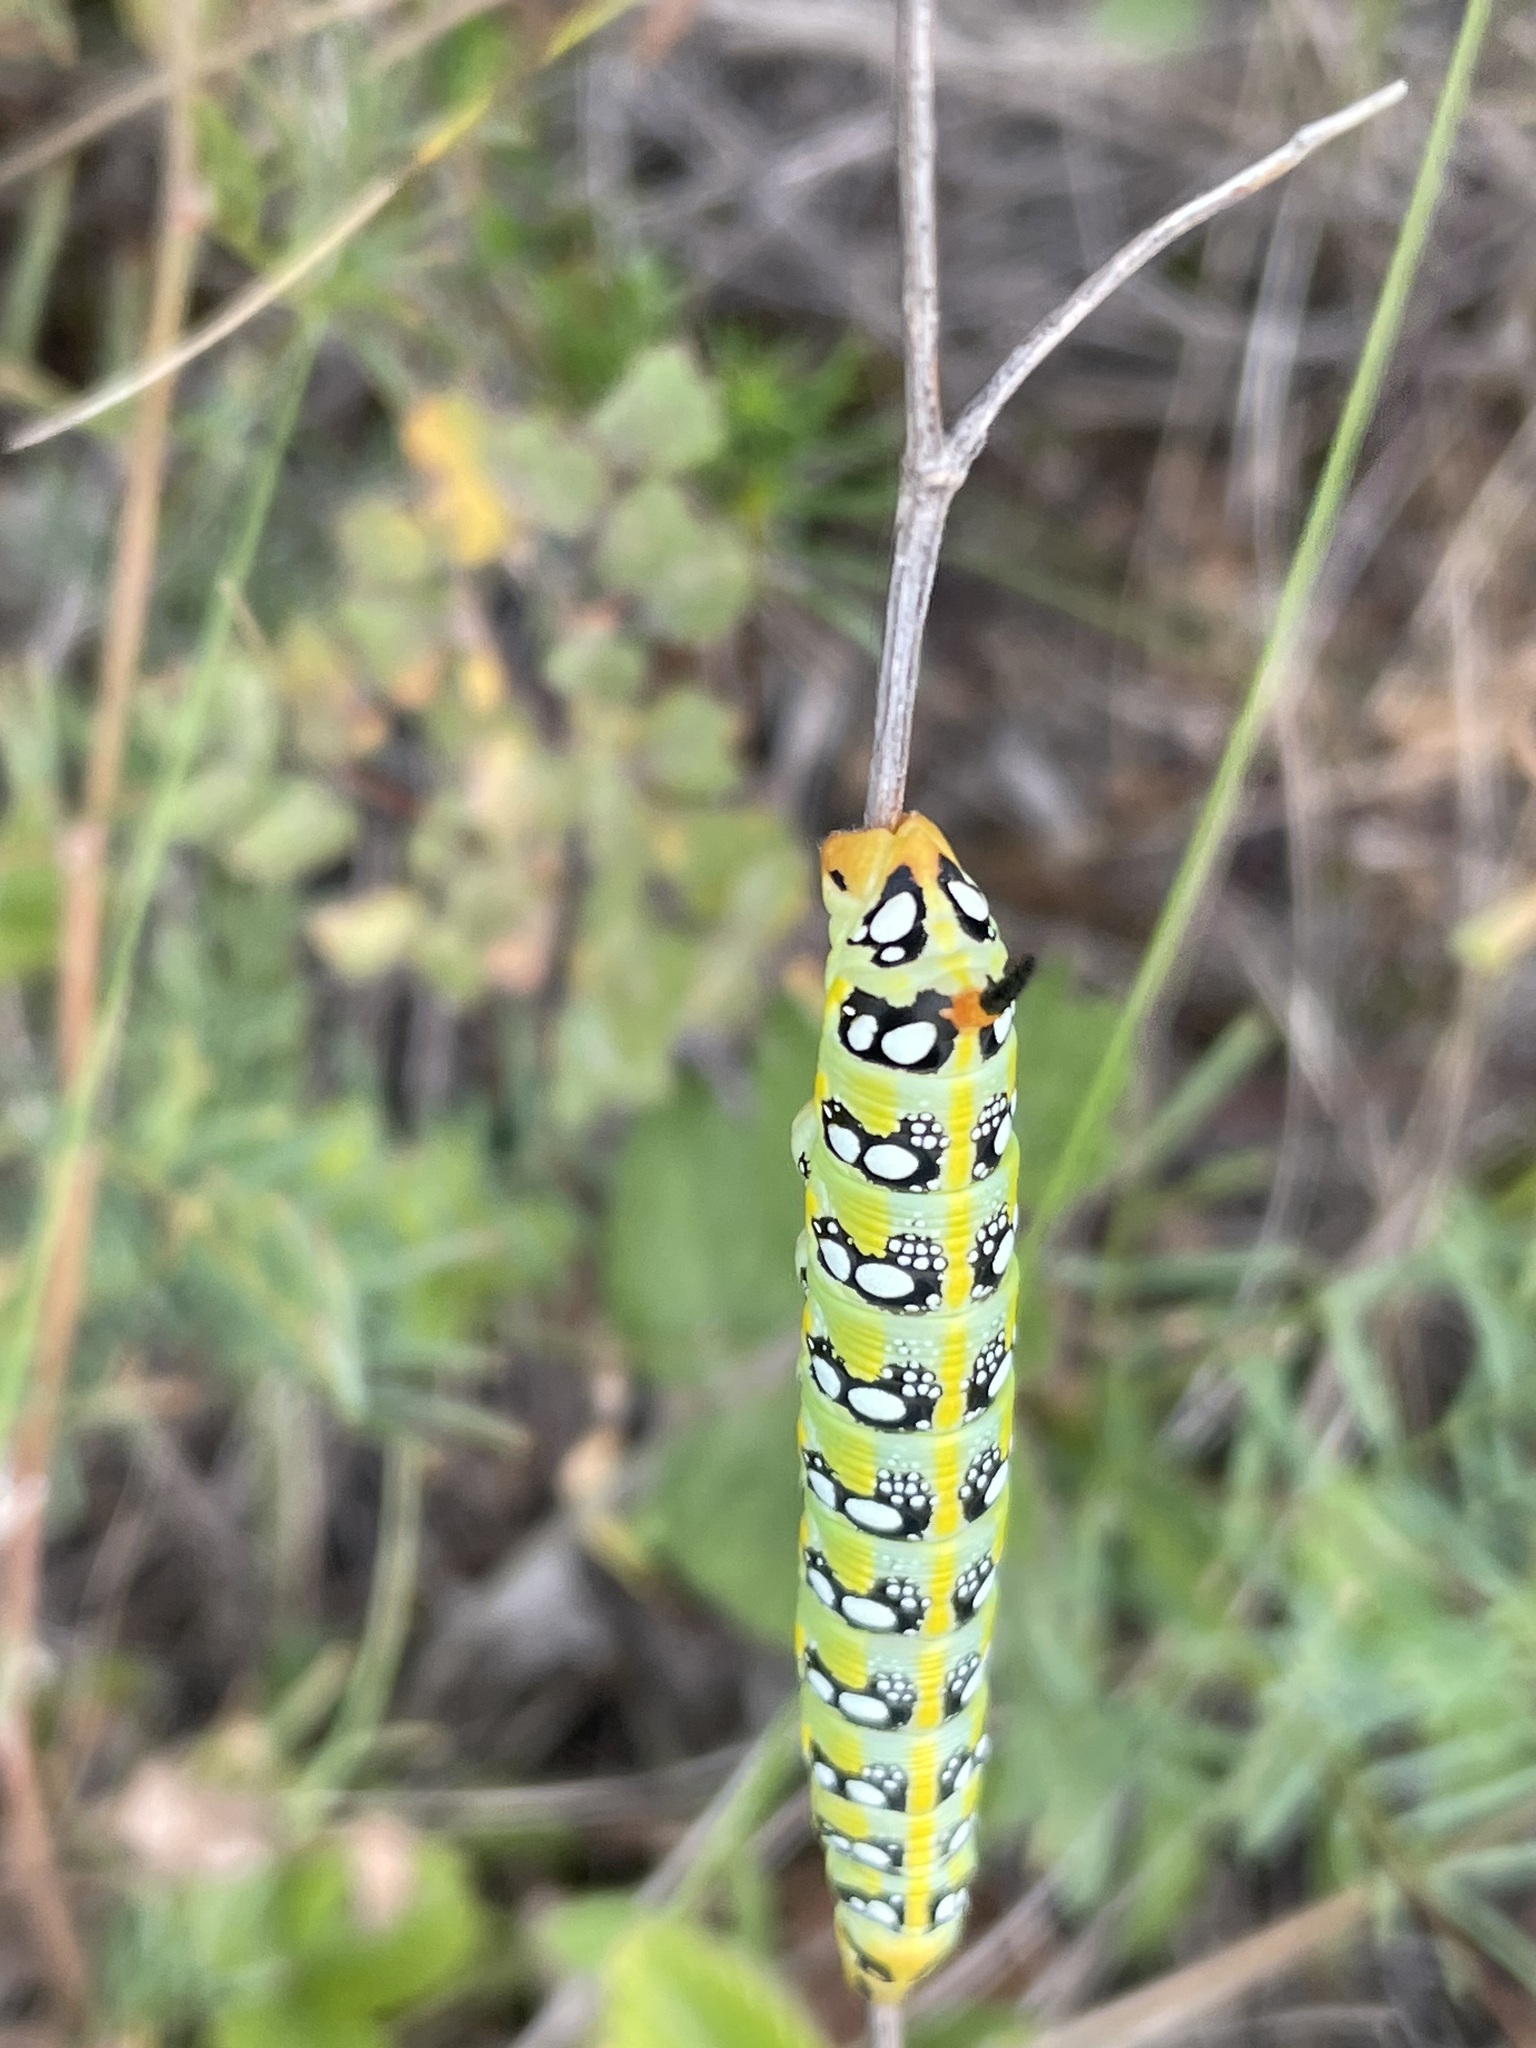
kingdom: Animalia
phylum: Arthropoda
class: Insecta
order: Lepidoptera
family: Sphingidae
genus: Hyles
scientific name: Hyles euphorbiae
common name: Spurge hawk-moth
